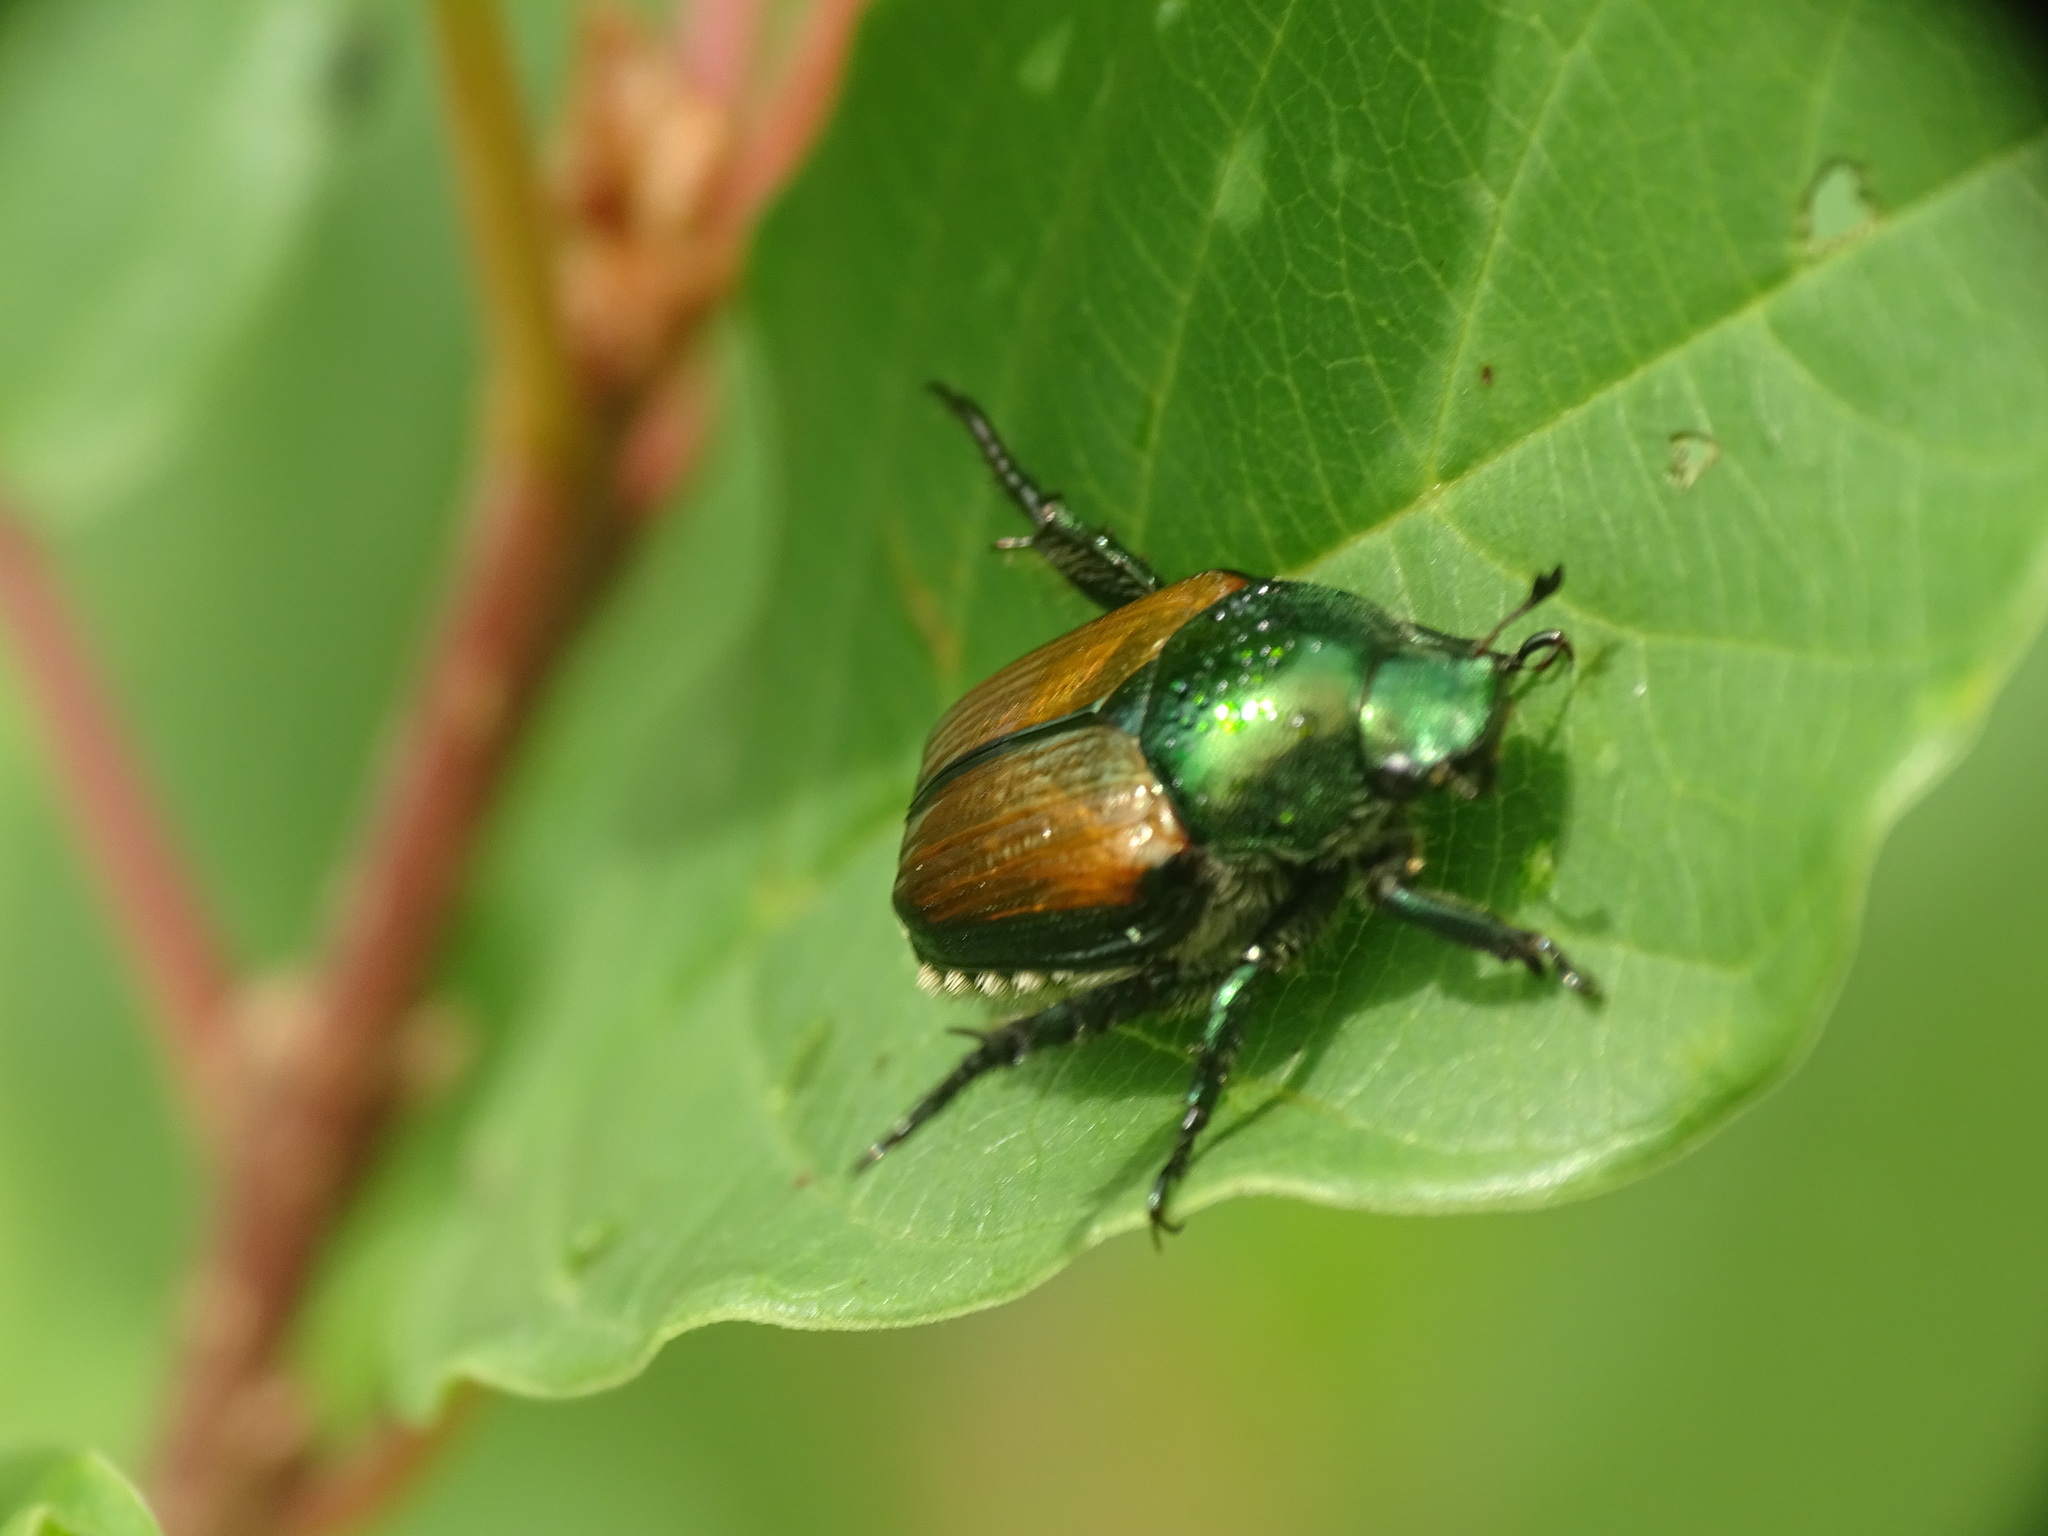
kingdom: Animalia
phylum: Arthropoda
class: Insecta
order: Coleoptera
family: Scarabaeidae
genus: Popillia
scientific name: Popillia japonica
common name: Japanese beetle
